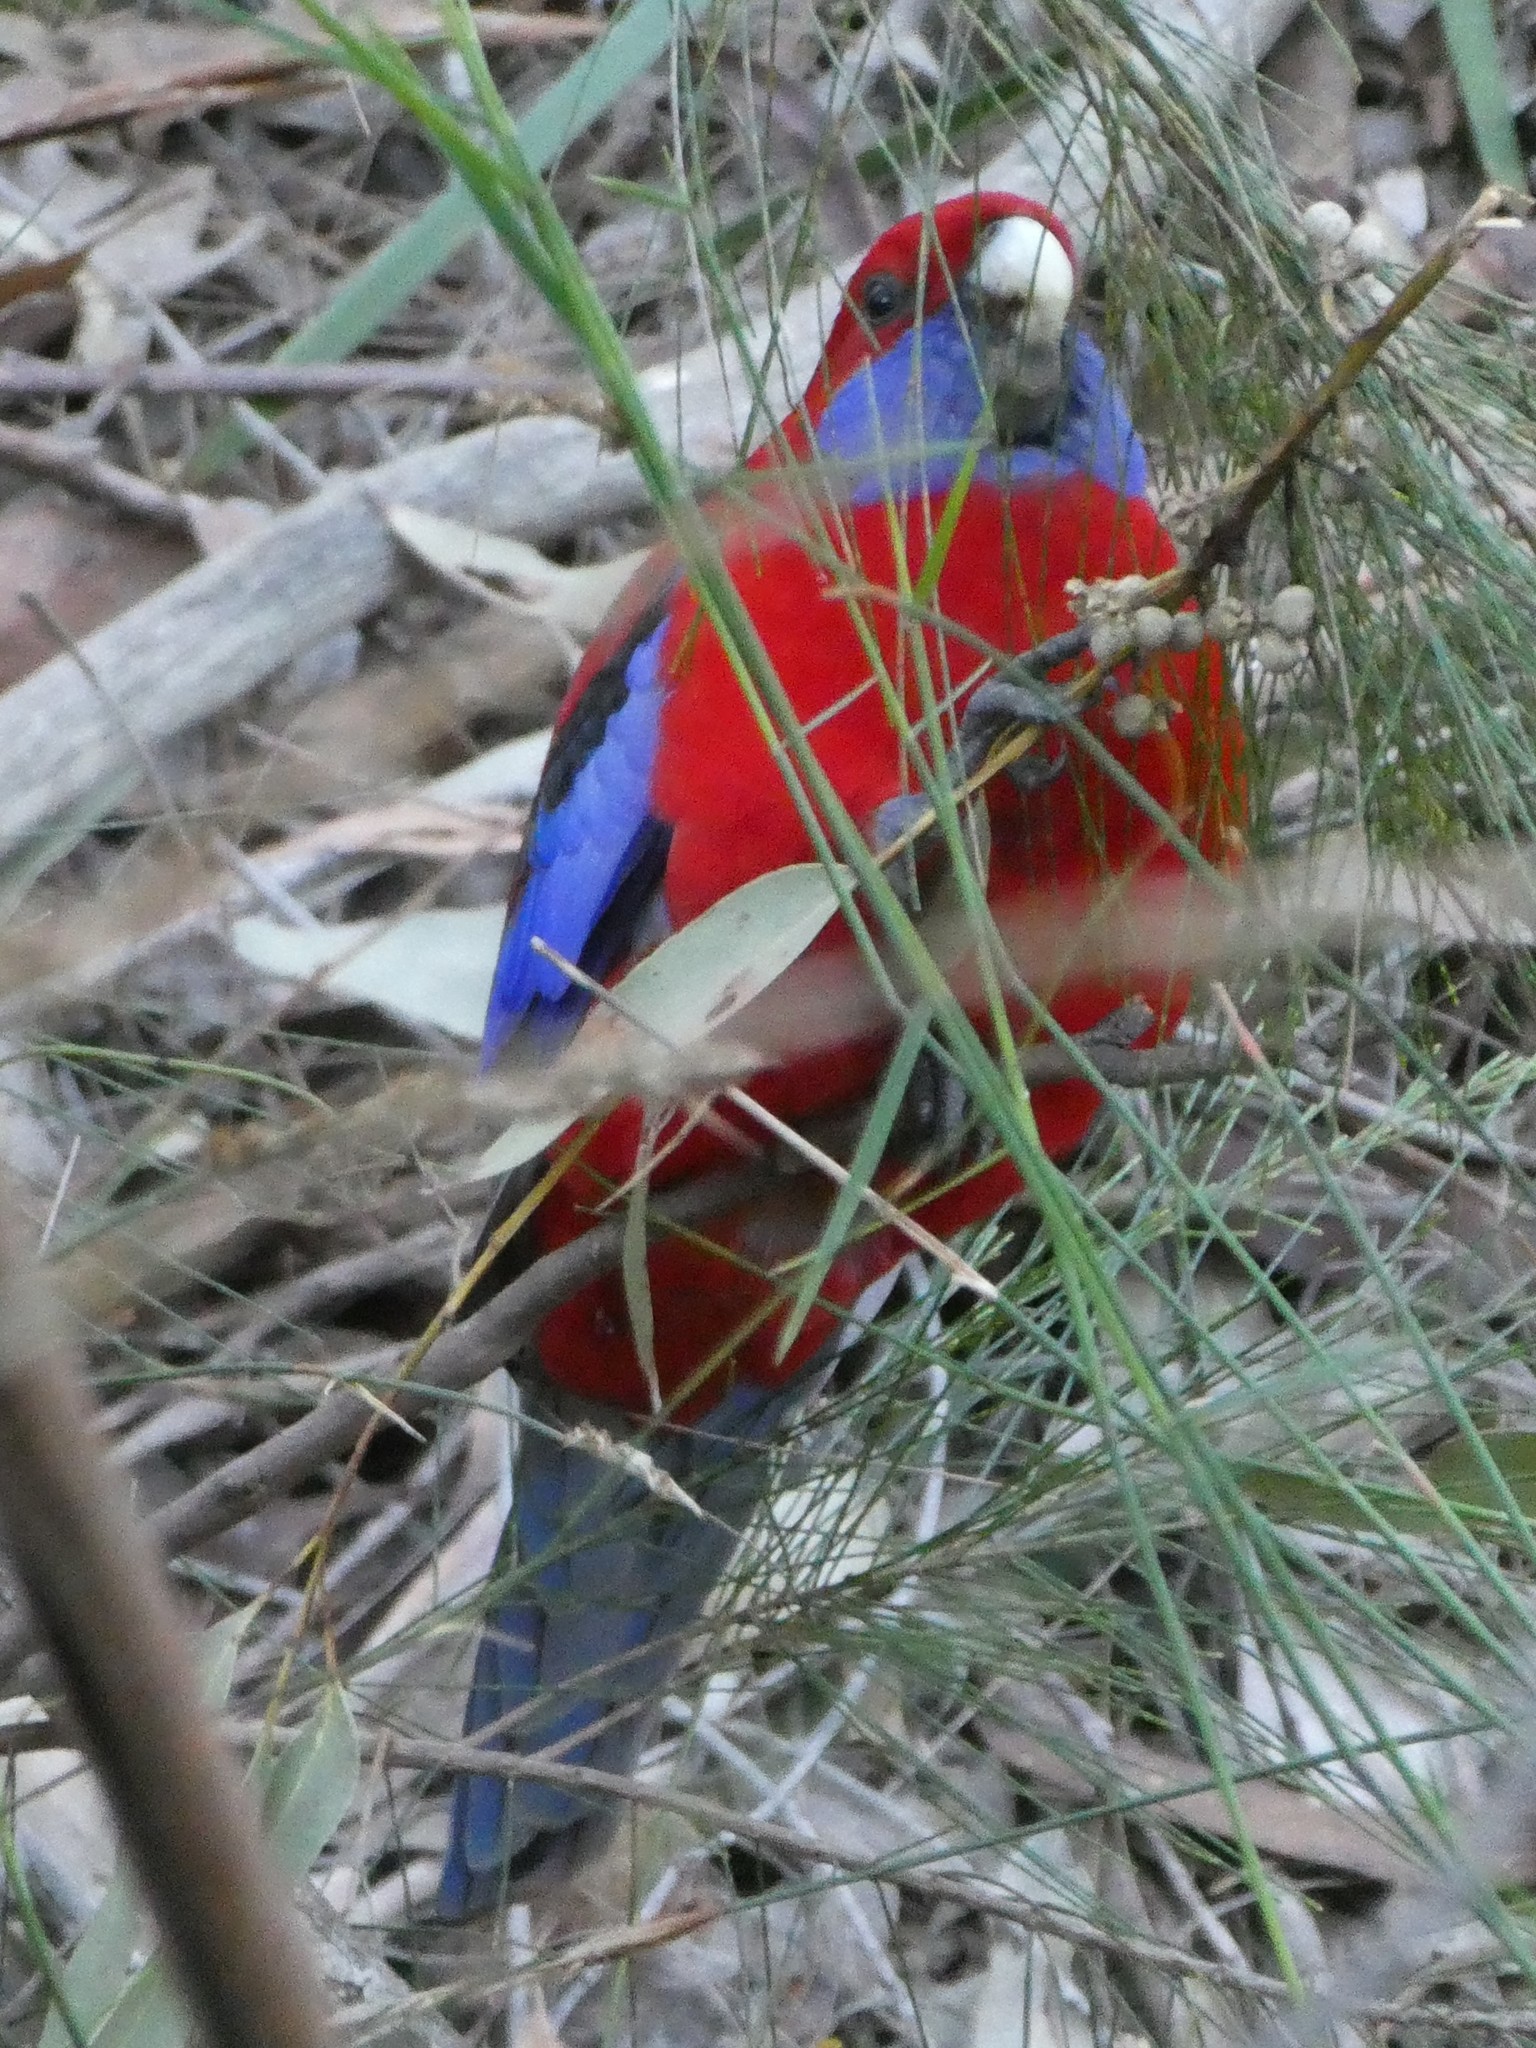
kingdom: Animalia
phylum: Chordata
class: Aves
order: Psittaciformes
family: Psittacidae
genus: Platycercus
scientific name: Platycercus elegans
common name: Crimson rosella
